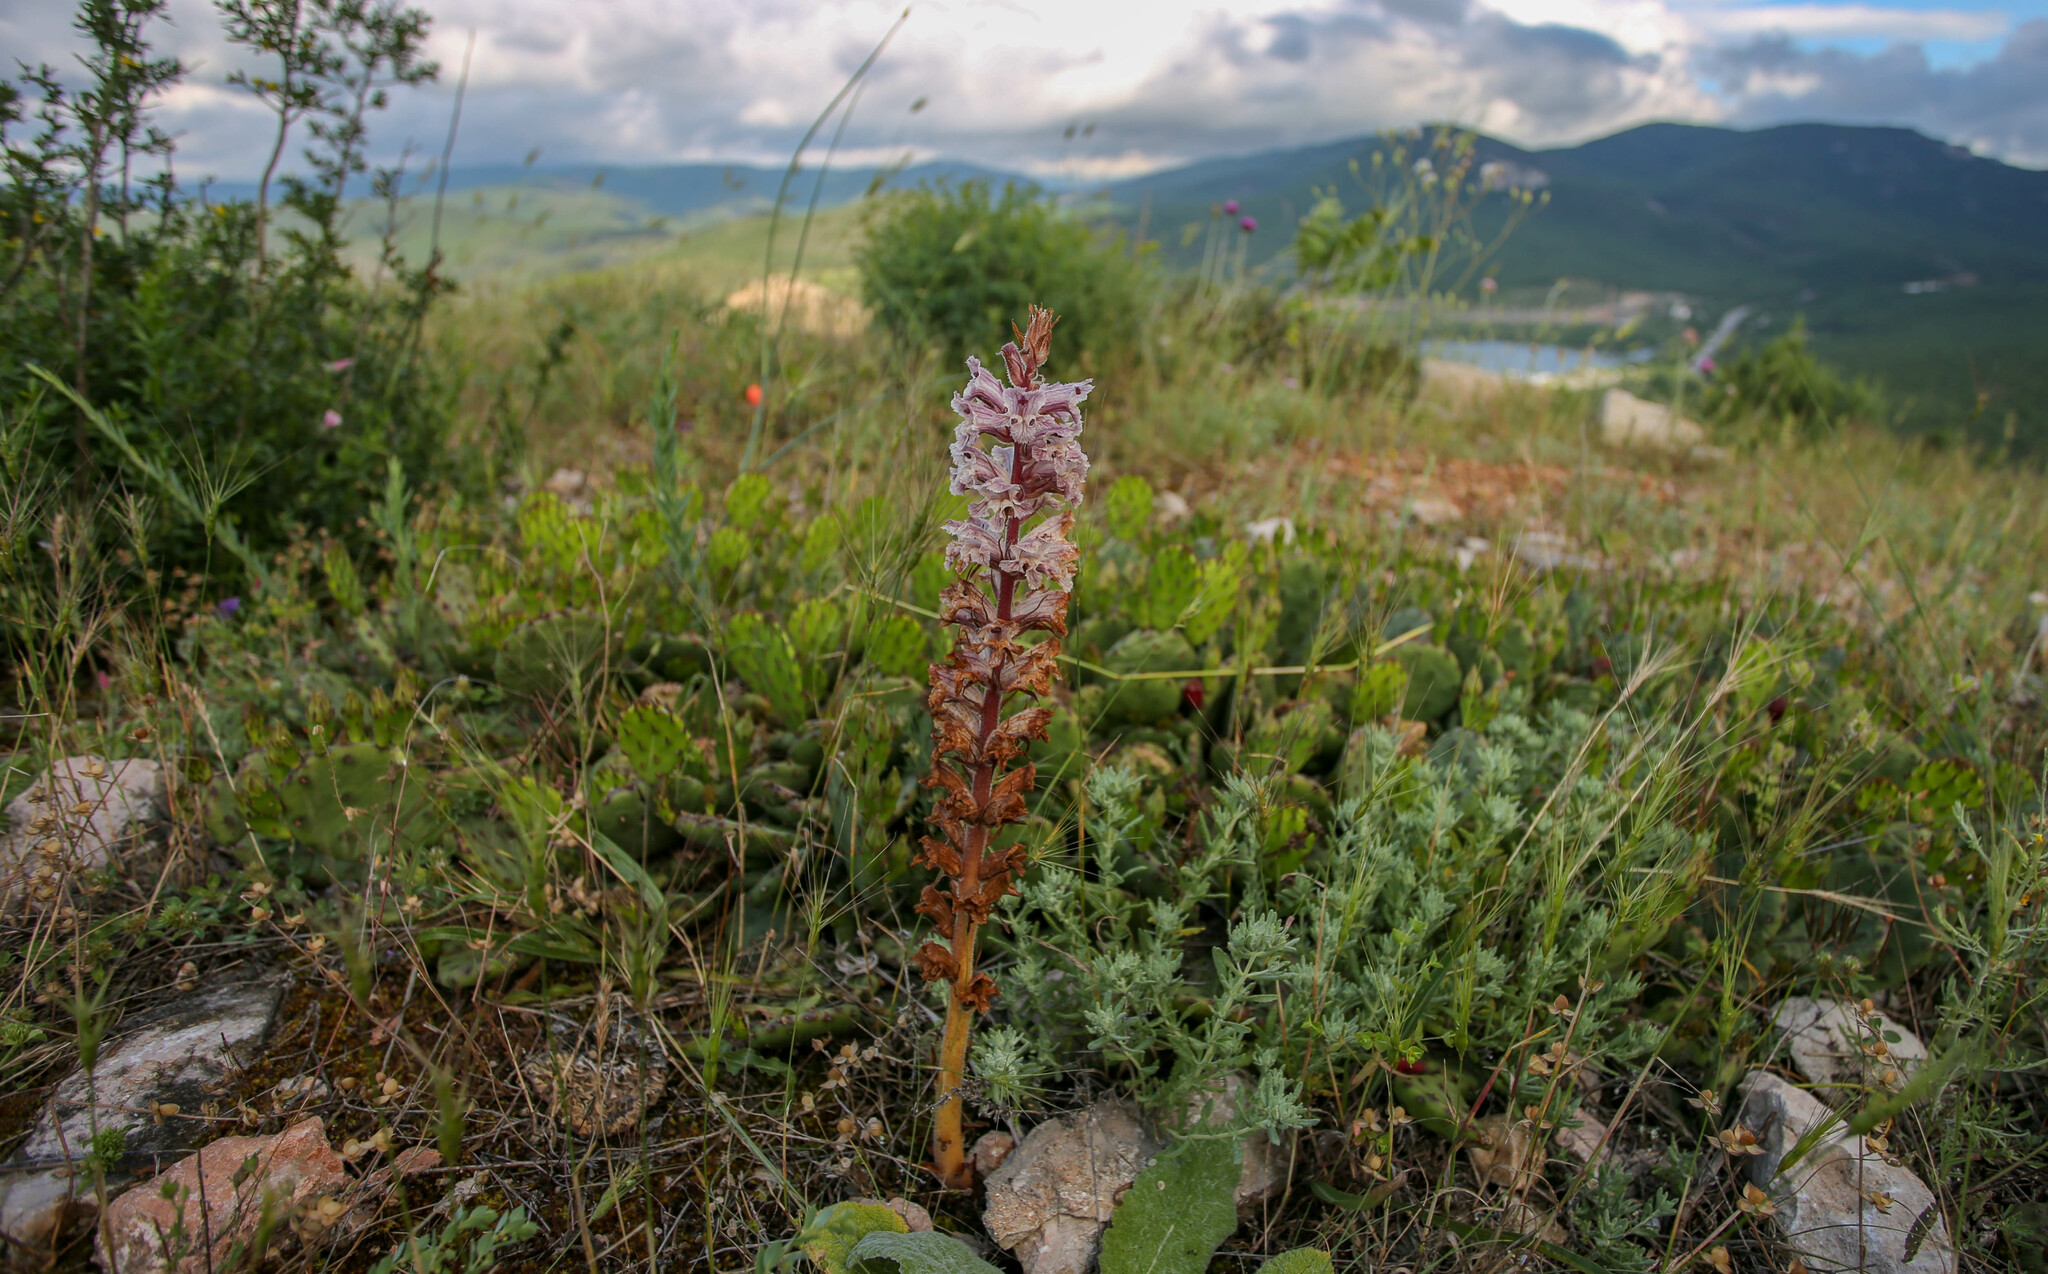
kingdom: Plantae
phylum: Tracheophyta
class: Magnoliopsida
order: Lamiales
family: Orobanchaceae
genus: Orobanche
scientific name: Orobanche crenata
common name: Bean broomrape
